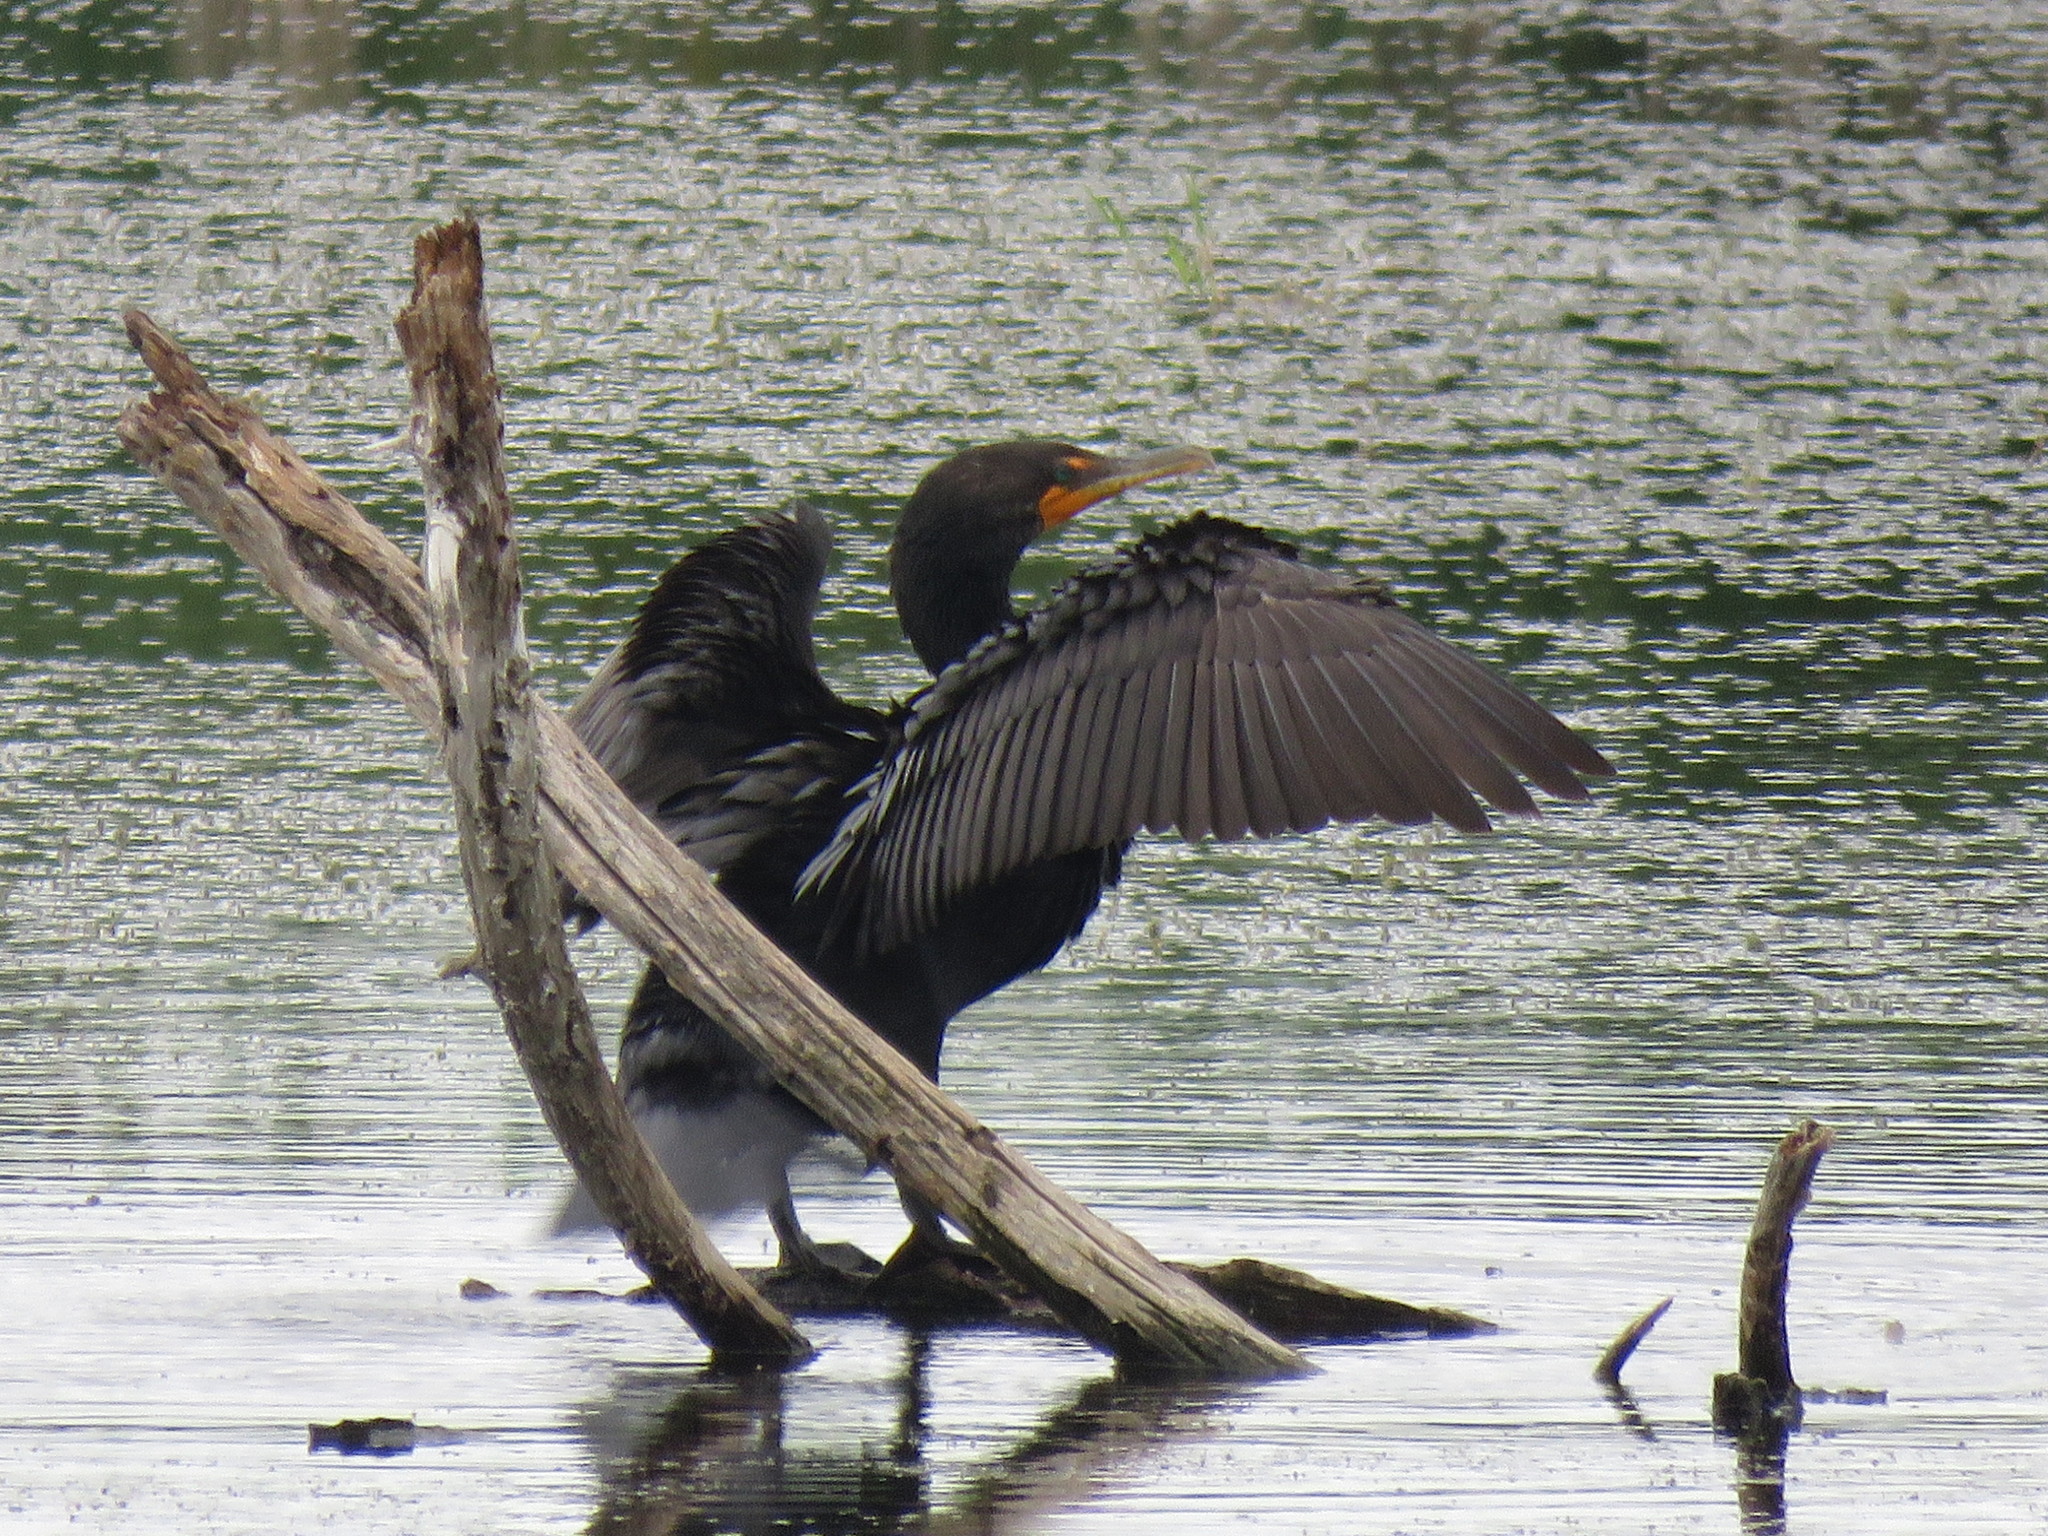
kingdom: Animalia
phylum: Chordata
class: Aves
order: Suliformes
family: Phalacrocoracidae
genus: Phalacrocorax
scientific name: Phalacrocorax auritus
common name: Double-crested cormorant
